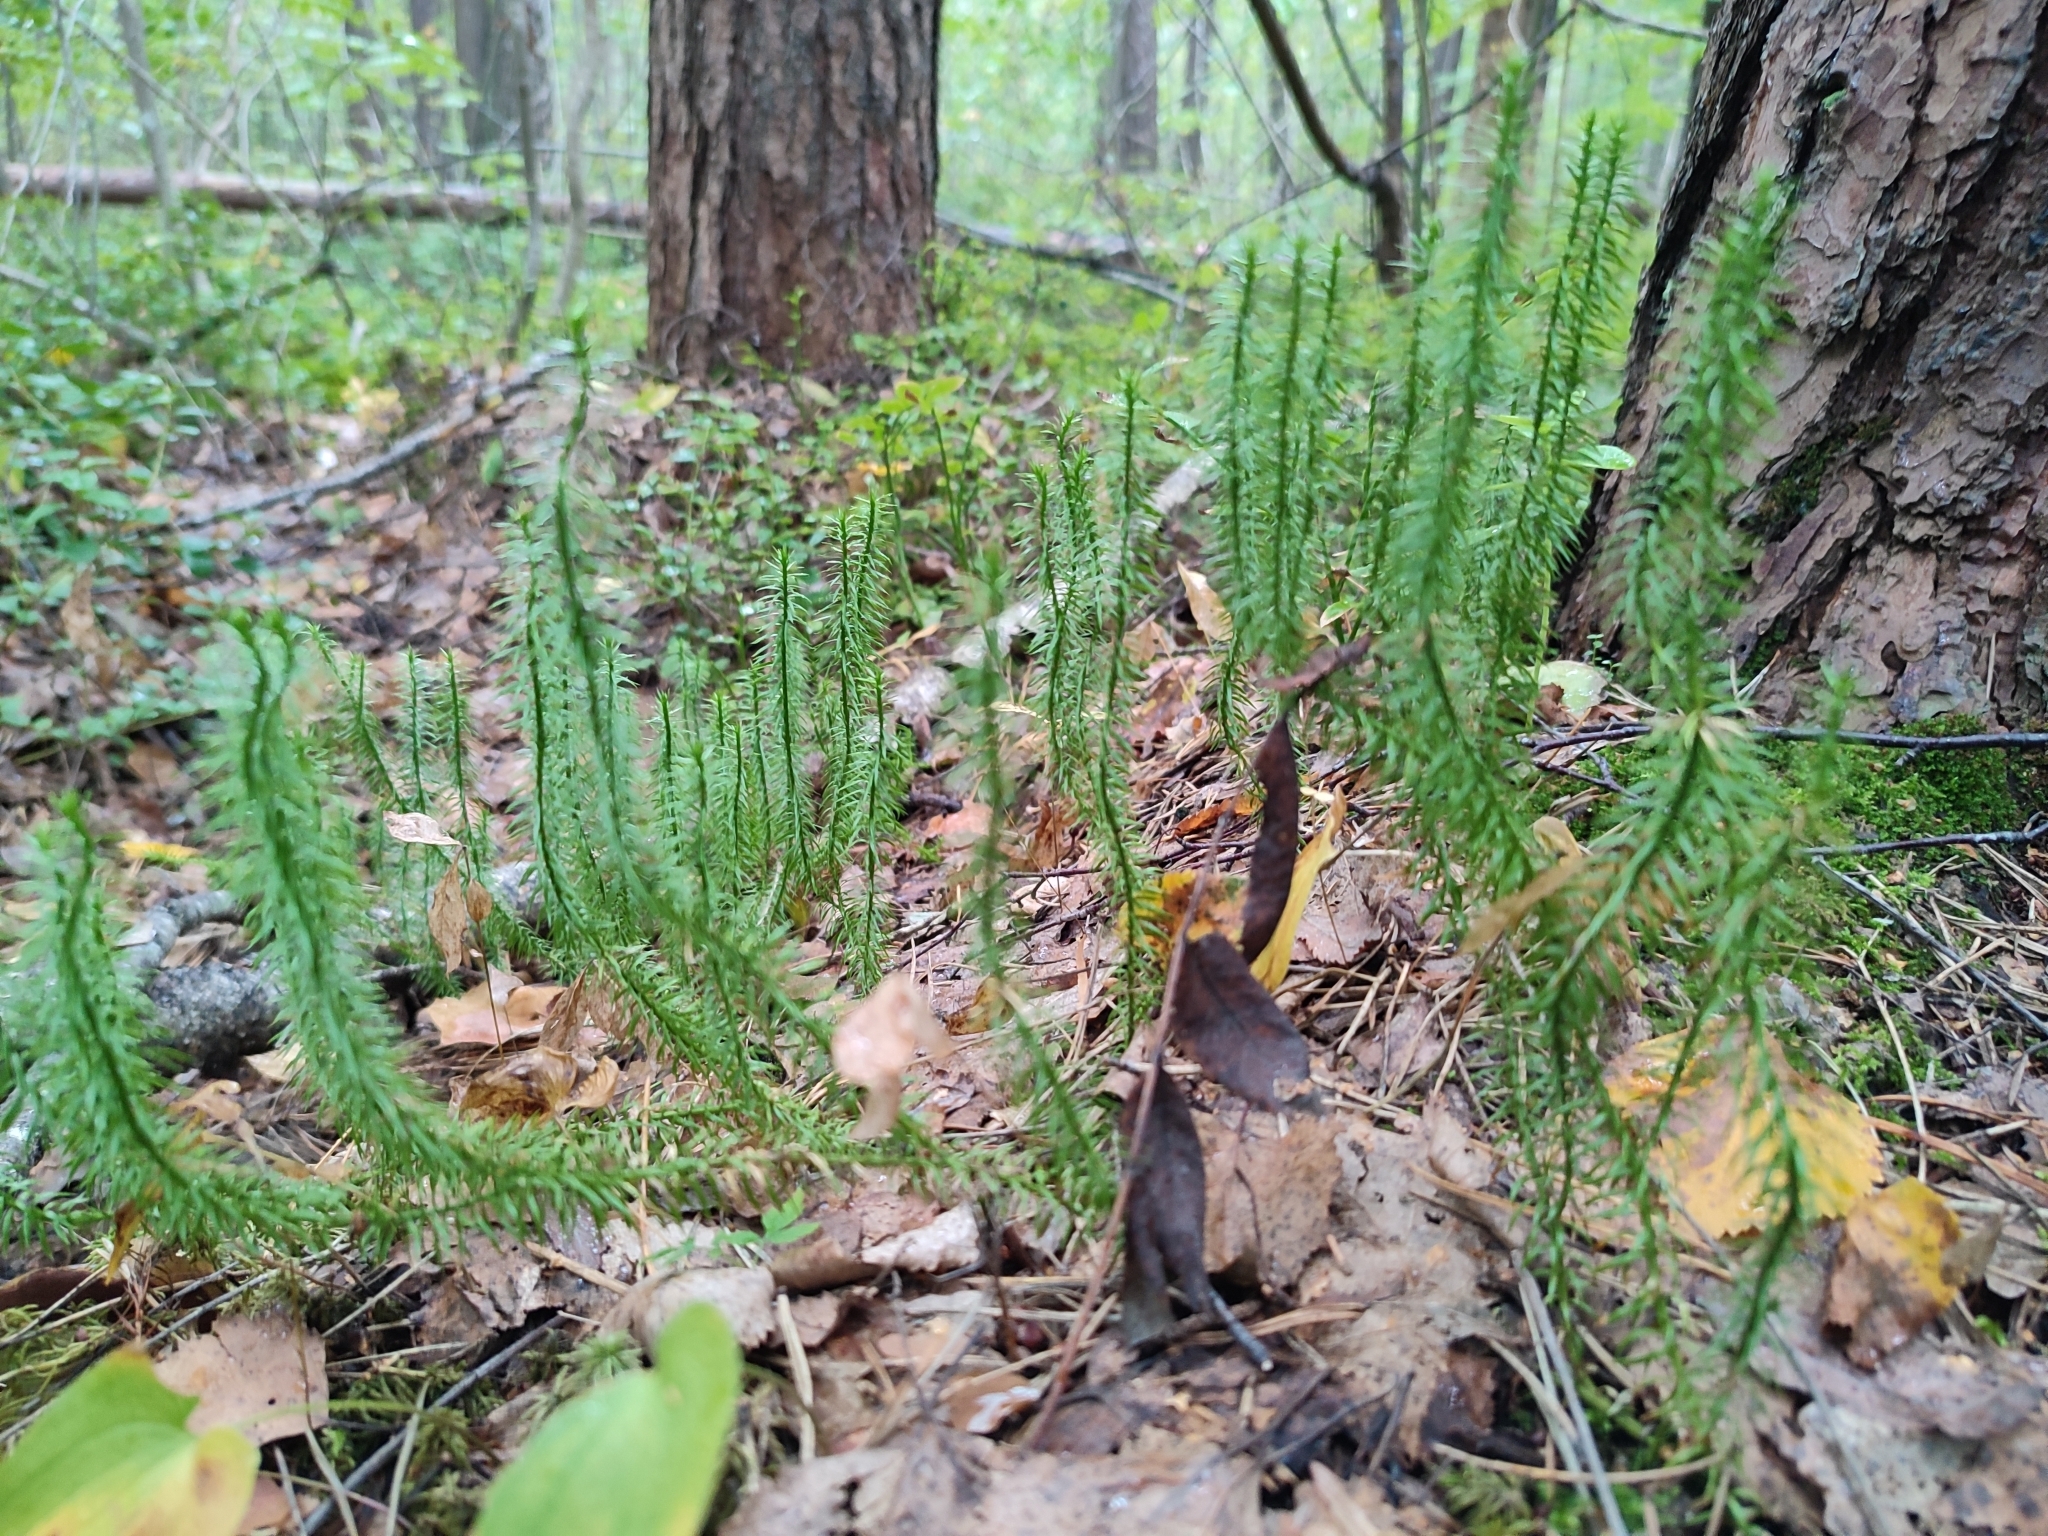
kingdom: Plantae
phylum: Tracheophyta
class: Lycopodiopsida
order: Lycopodiales
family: Lycopodiaceae
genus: Spinulum
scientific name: Spinulum annotinum
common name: Interrupted club-moss
